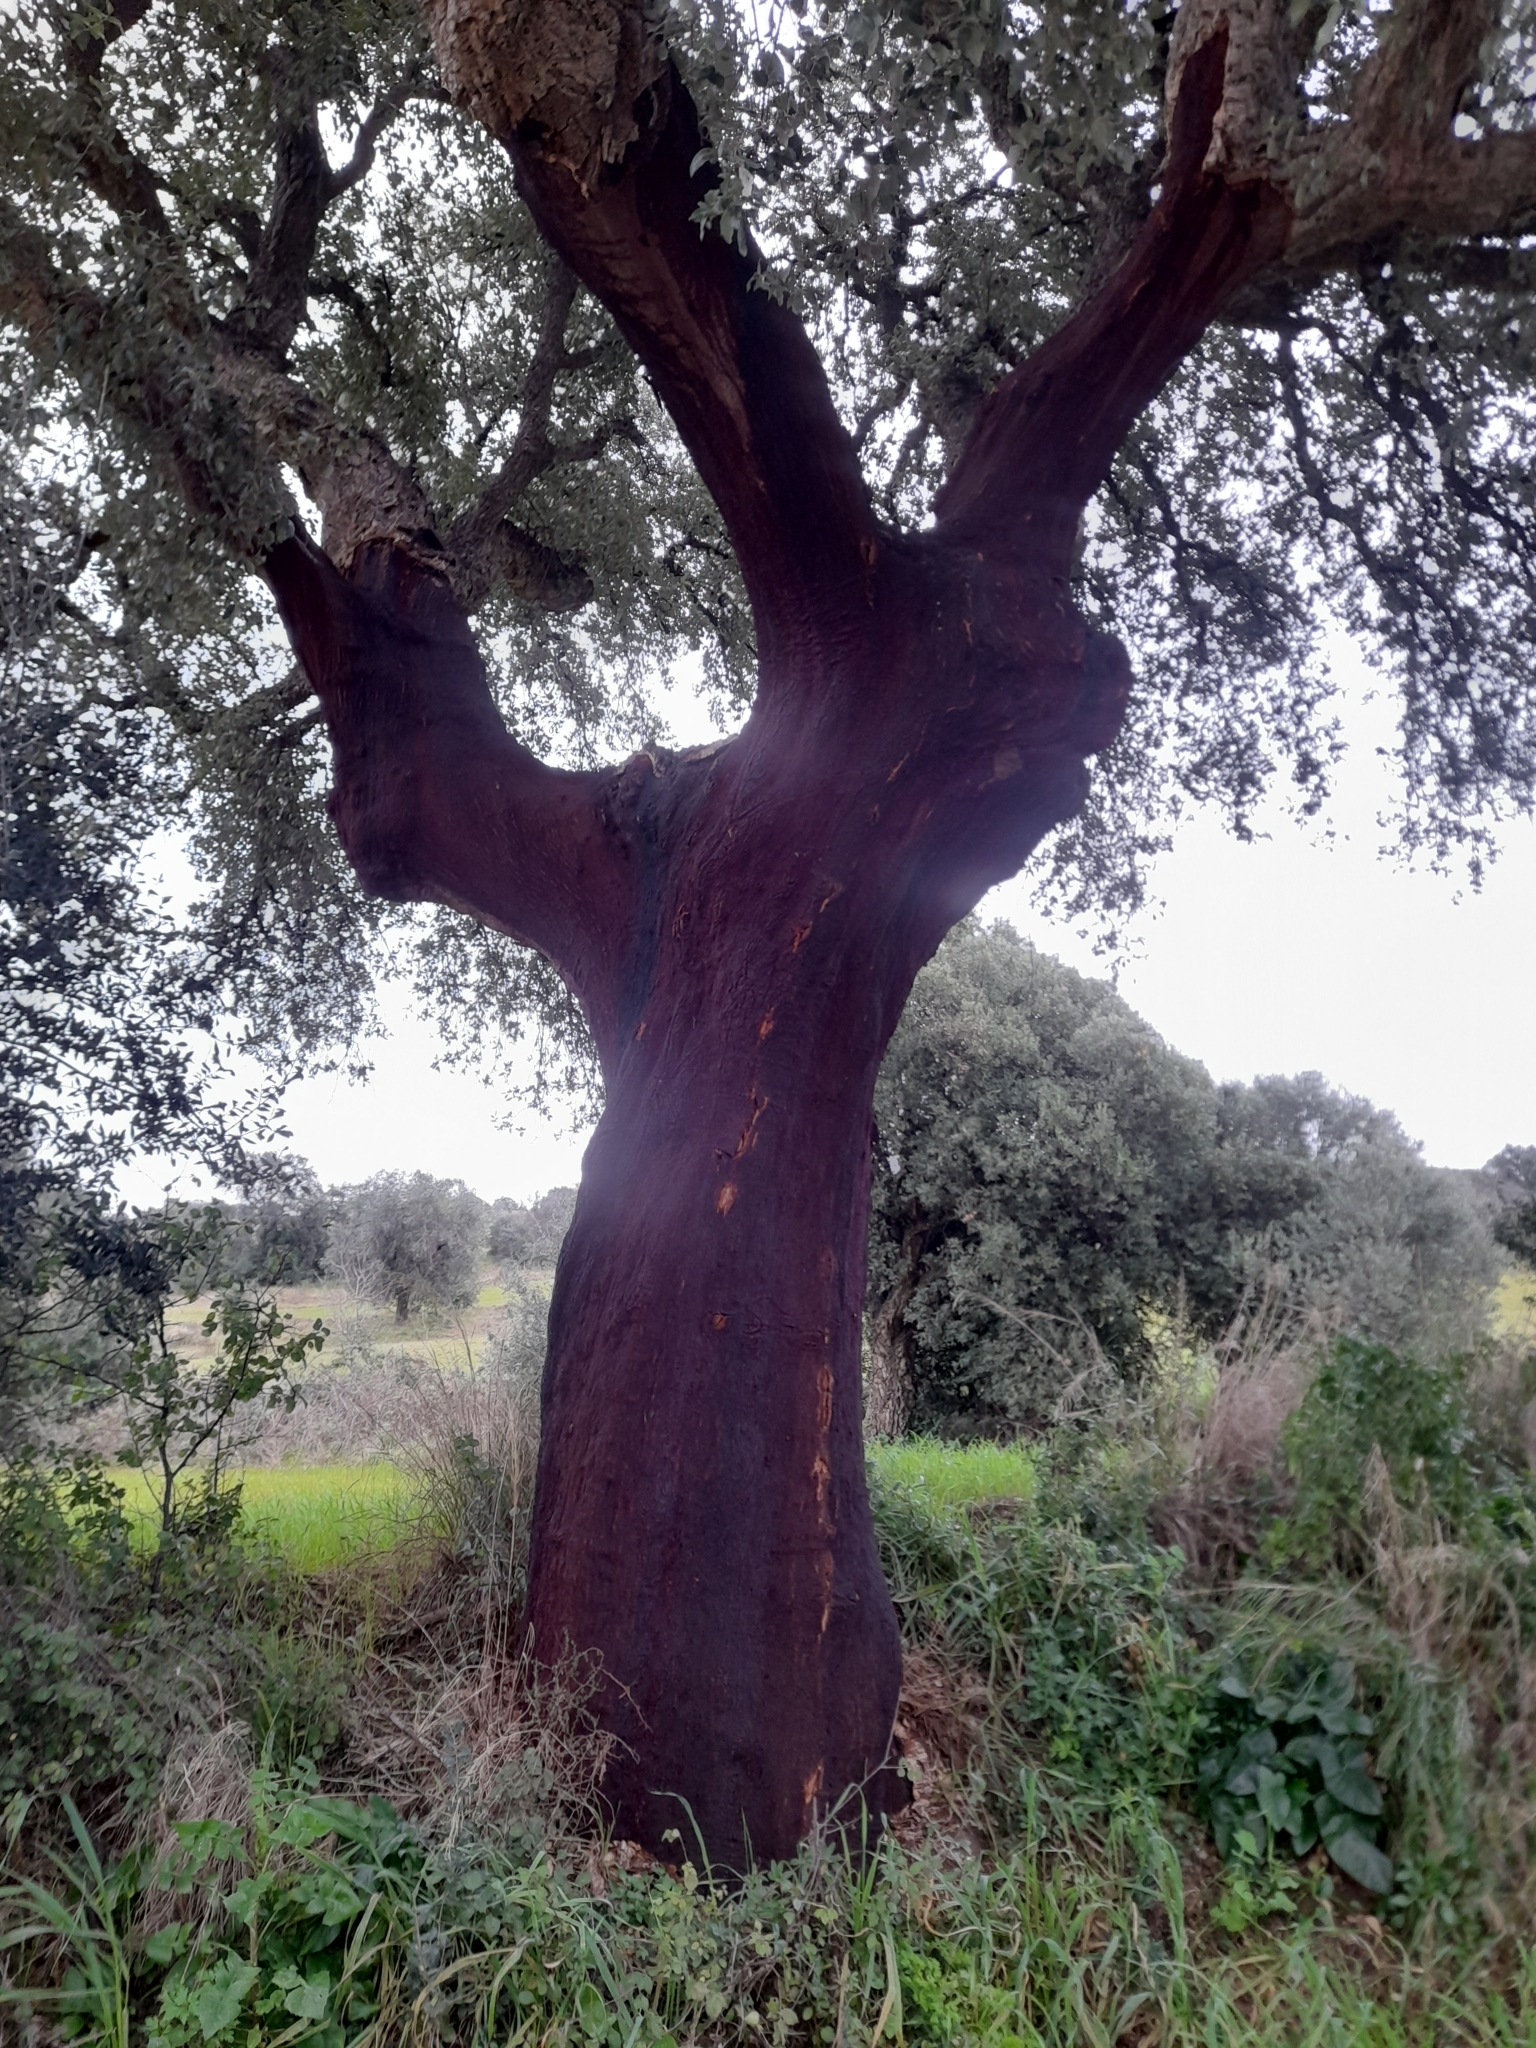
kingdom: Plantae
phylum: Tracheophyta
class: Magnoliopsida
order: Fagales
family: Fagaceae
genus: Quercus
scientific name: Quercus suber
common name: Cork oak
